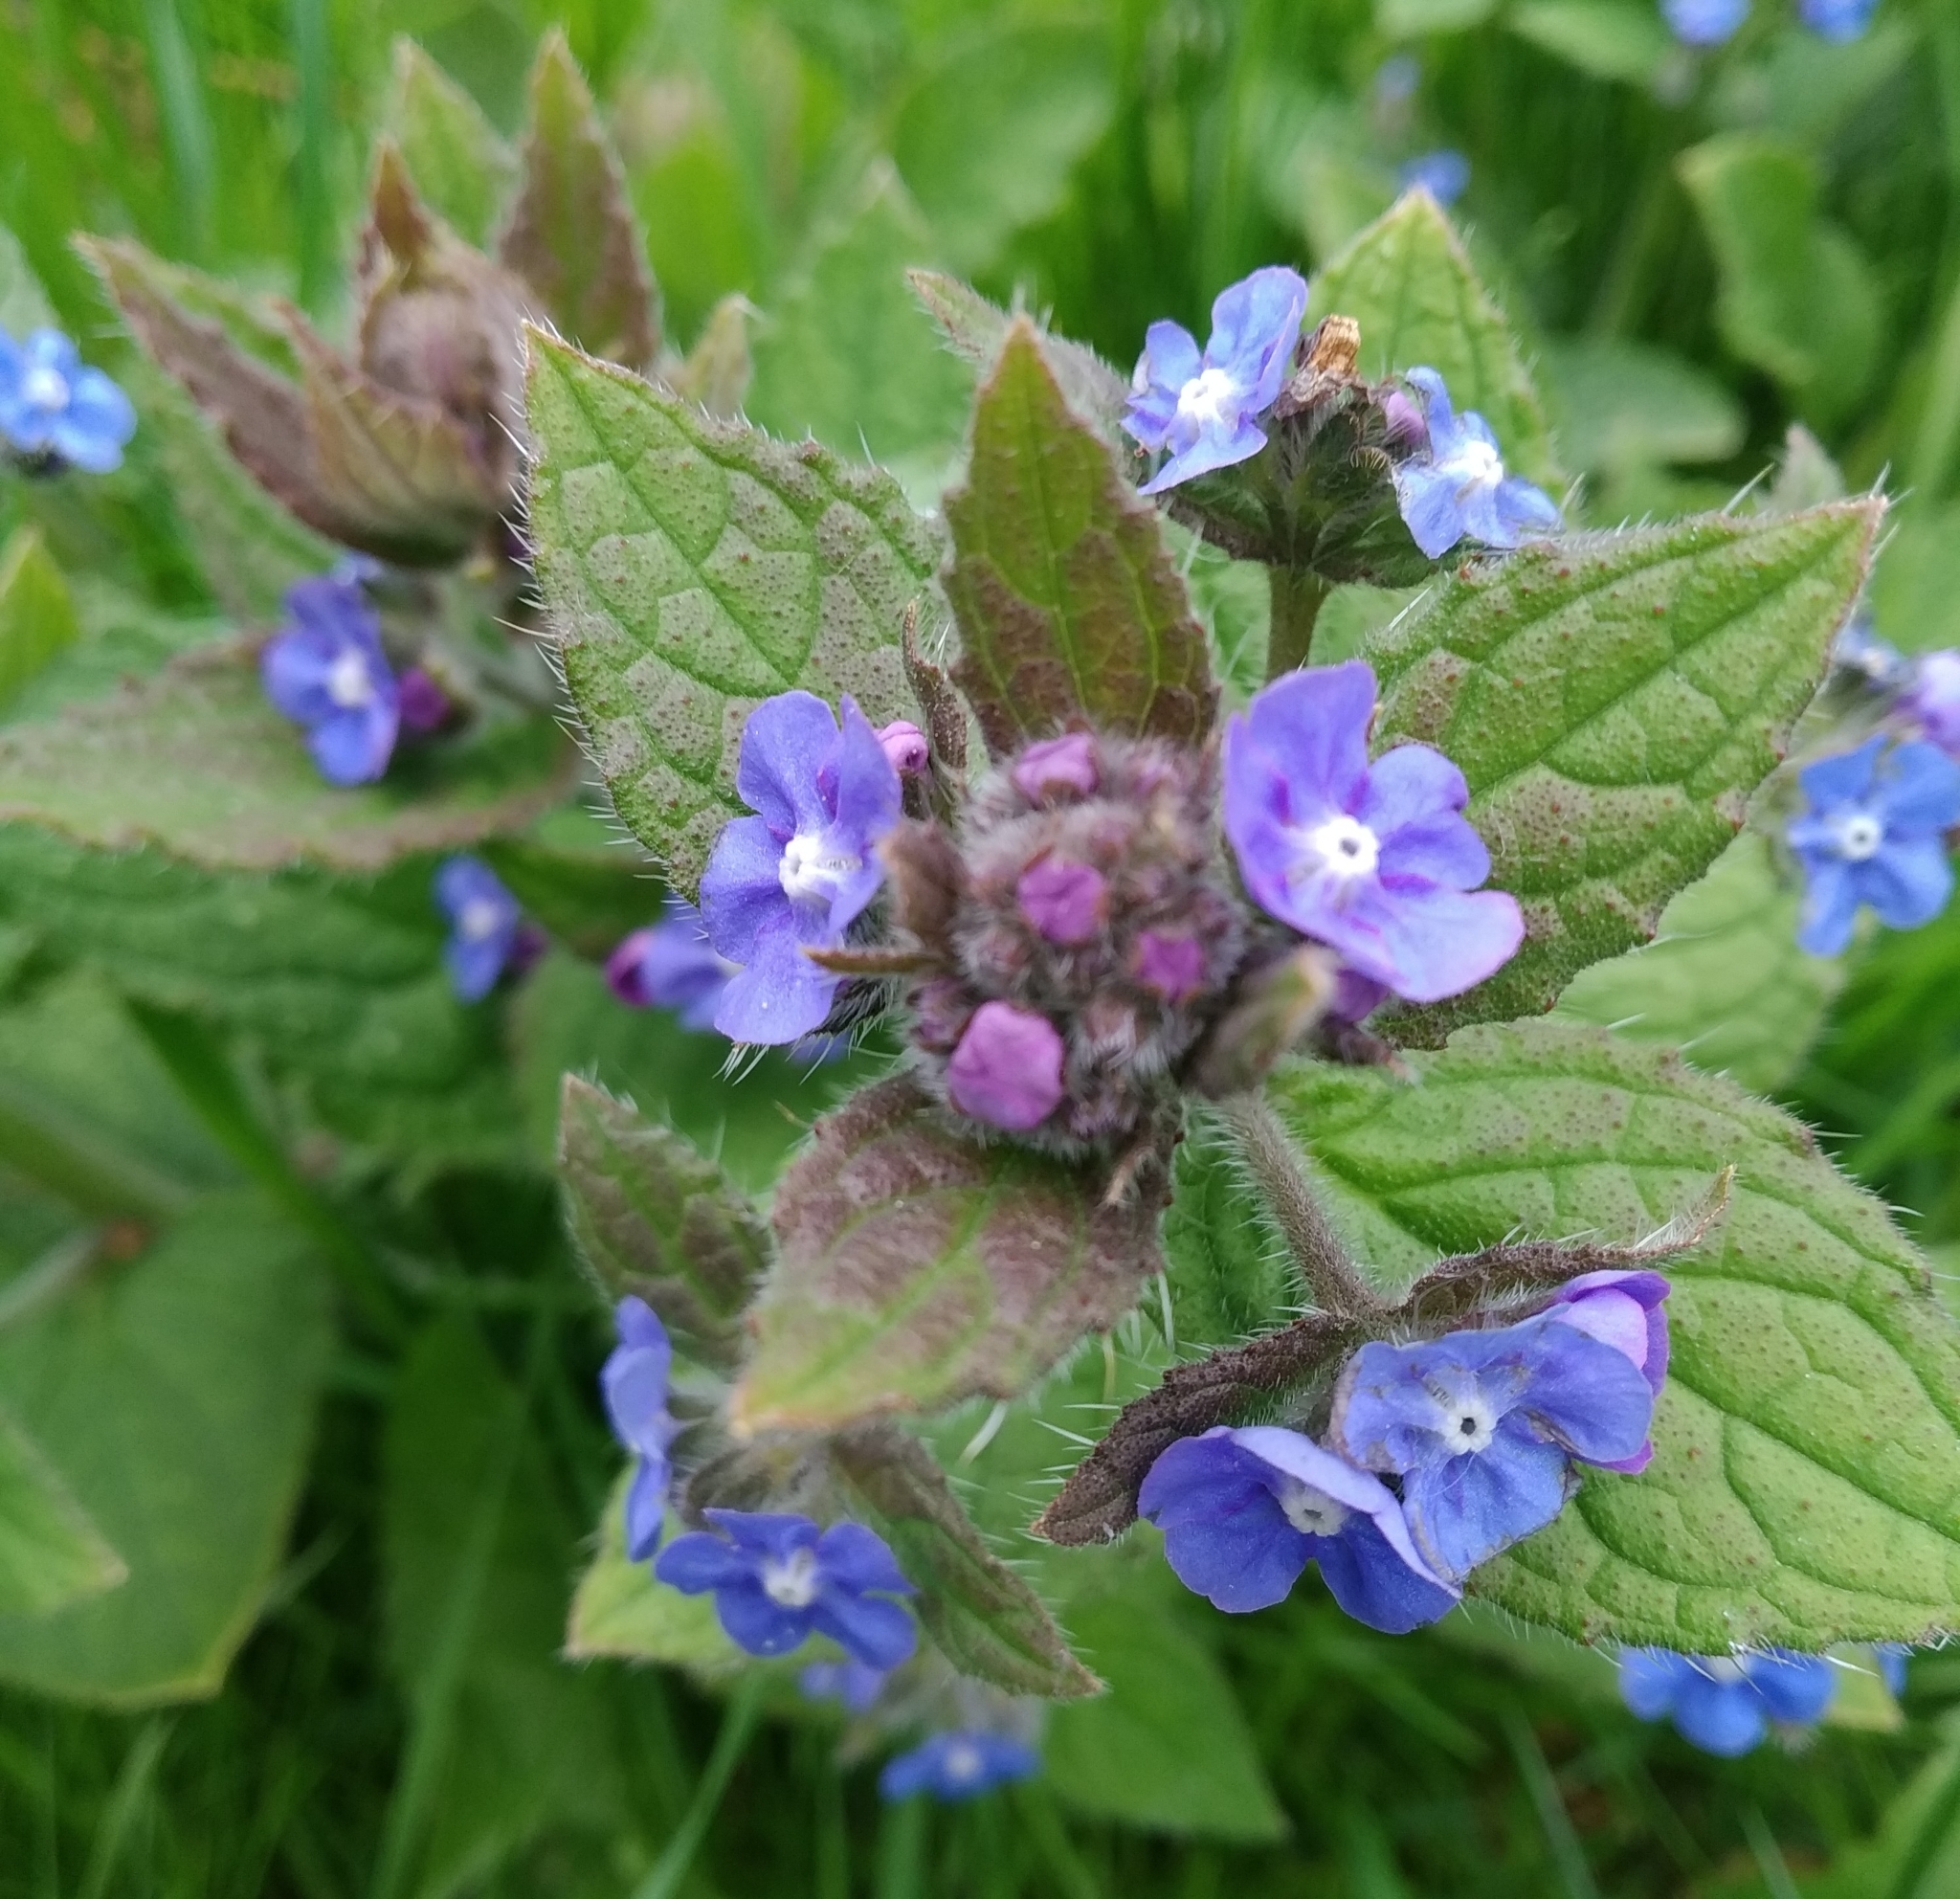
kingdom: Plantae
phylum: Tracheophyta
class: Magnoliopsida
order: Boraginales
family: Boraginaceae
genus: Pentaglottis
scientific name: Pentaglottis sempervirens
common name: Green alkanet
